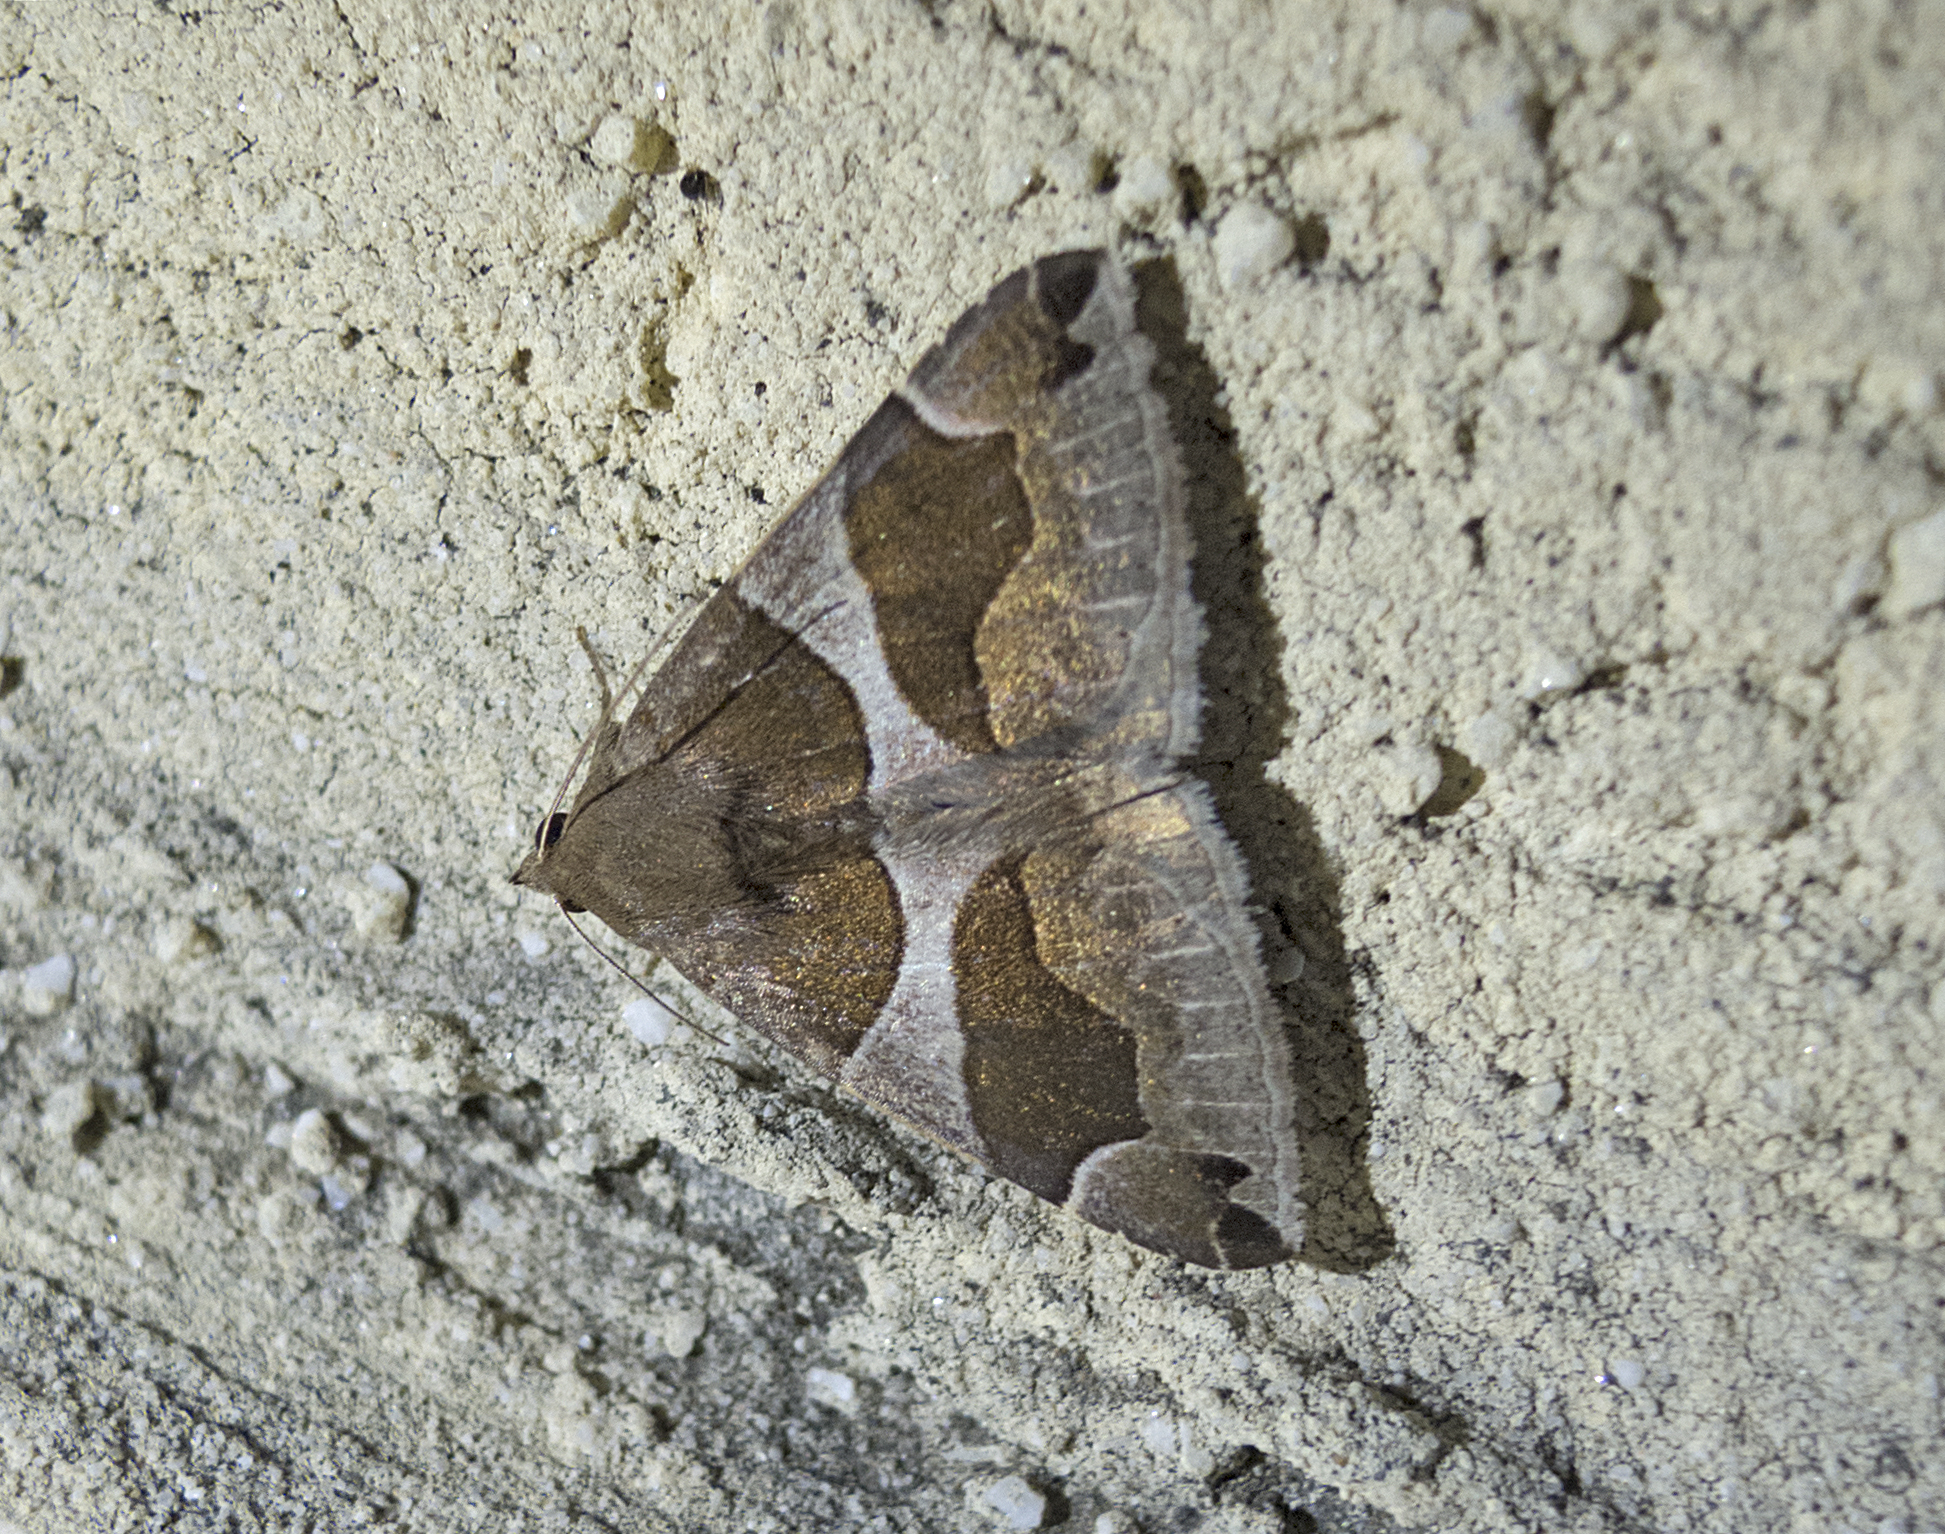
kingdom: Animalia
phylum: Arthropoda
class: Insecta
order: Lepidoptera
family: Erebidae
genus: Dysgonia
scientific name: Dysgonia algira
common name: Passenger
